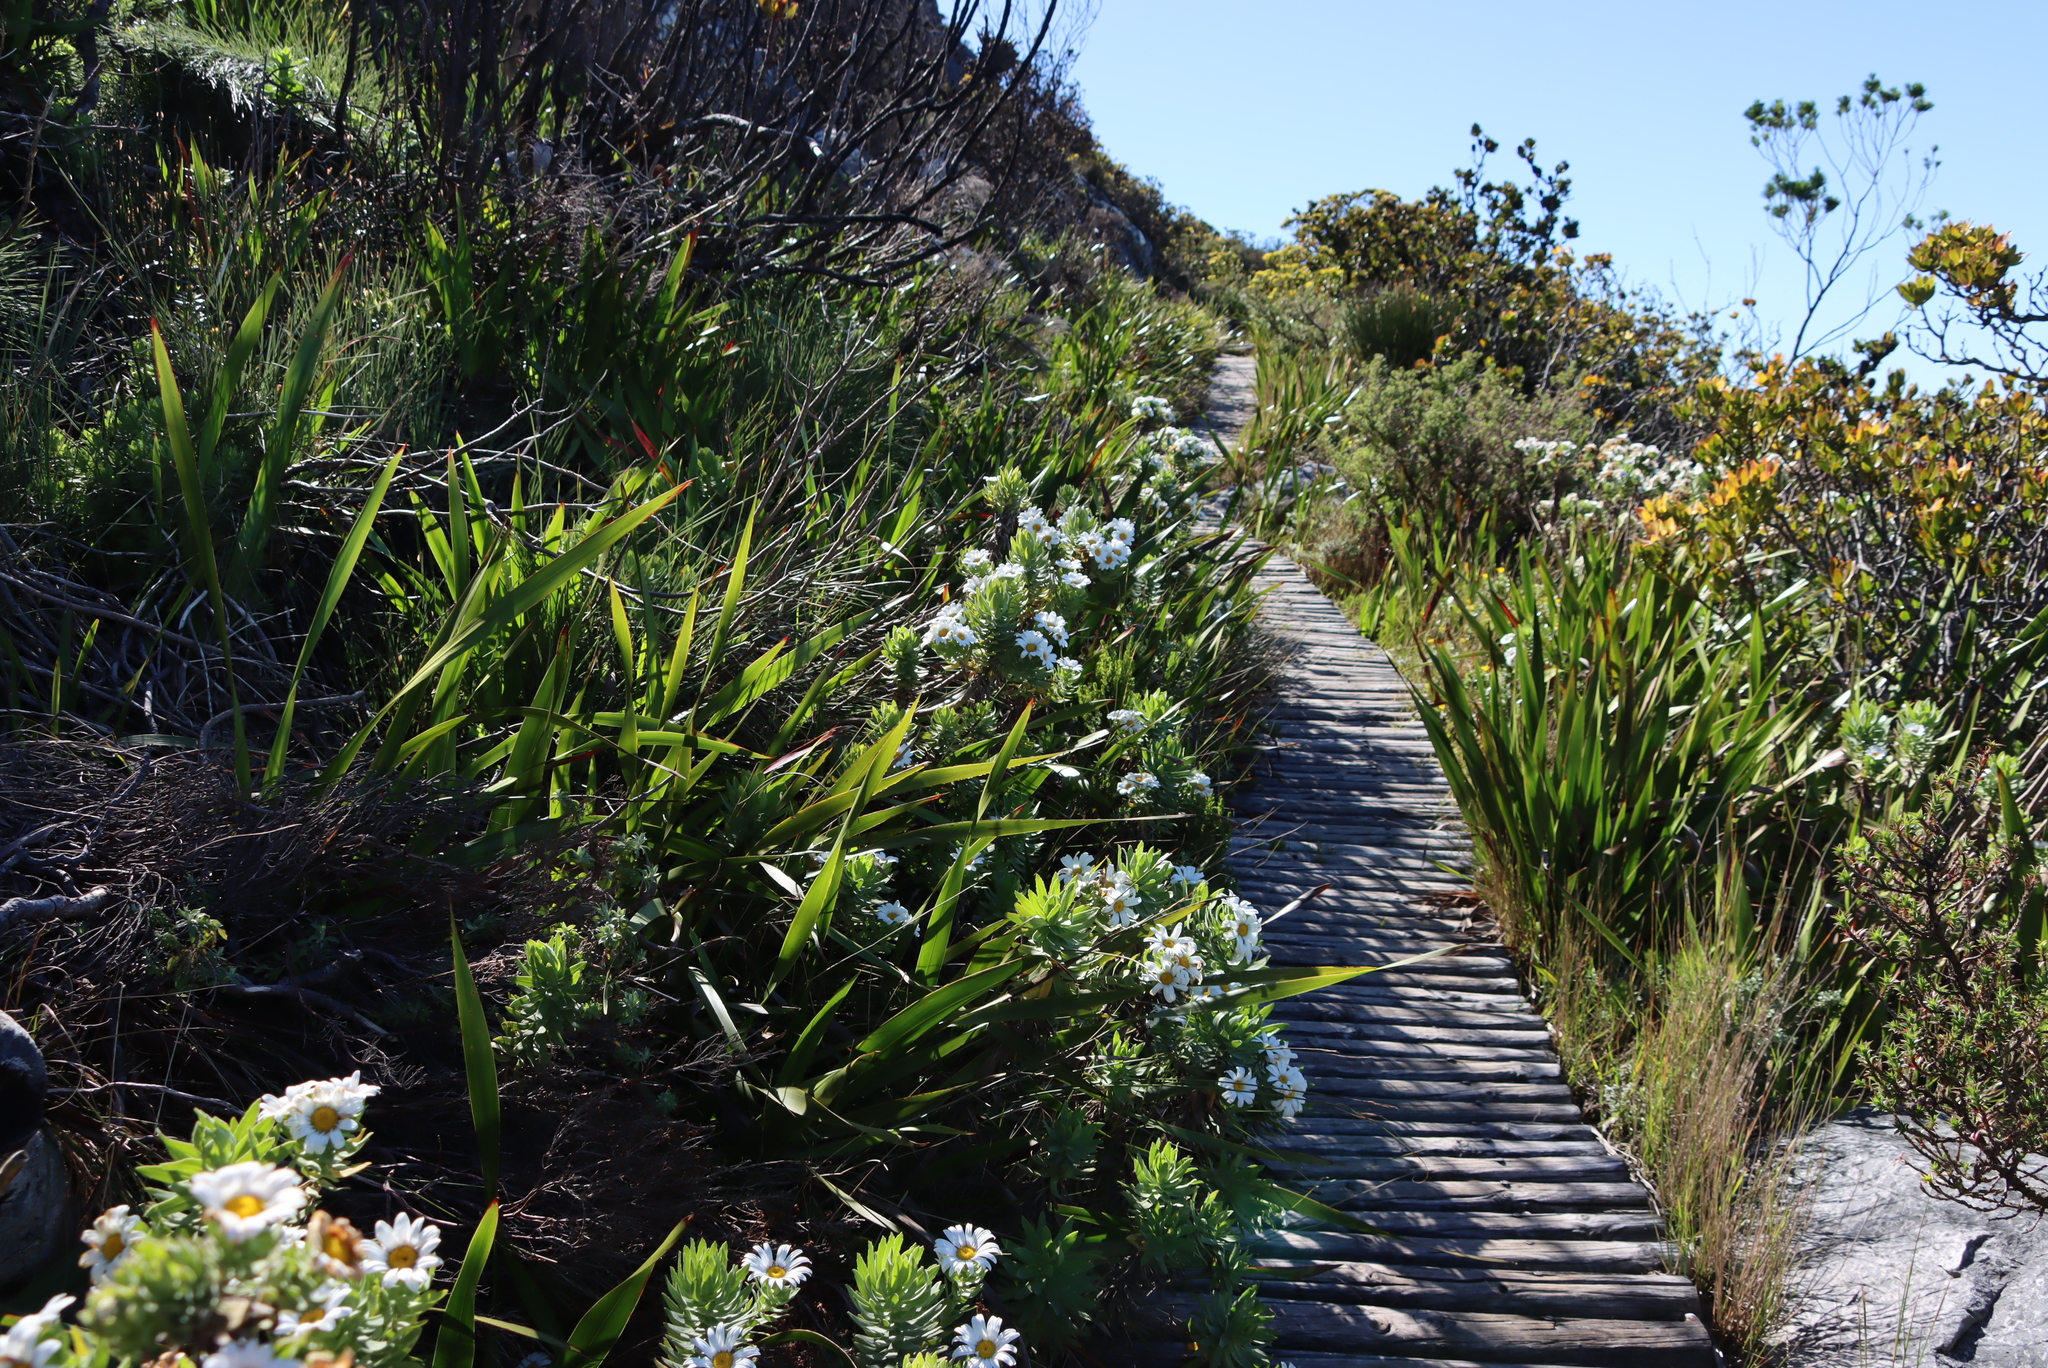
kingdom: Plantae
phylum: Tracheophyta
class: Magnoliopsida
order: Asterales
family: Asteraceae
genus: Osmitopsis
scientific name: Osmitopsis asteriscoides
